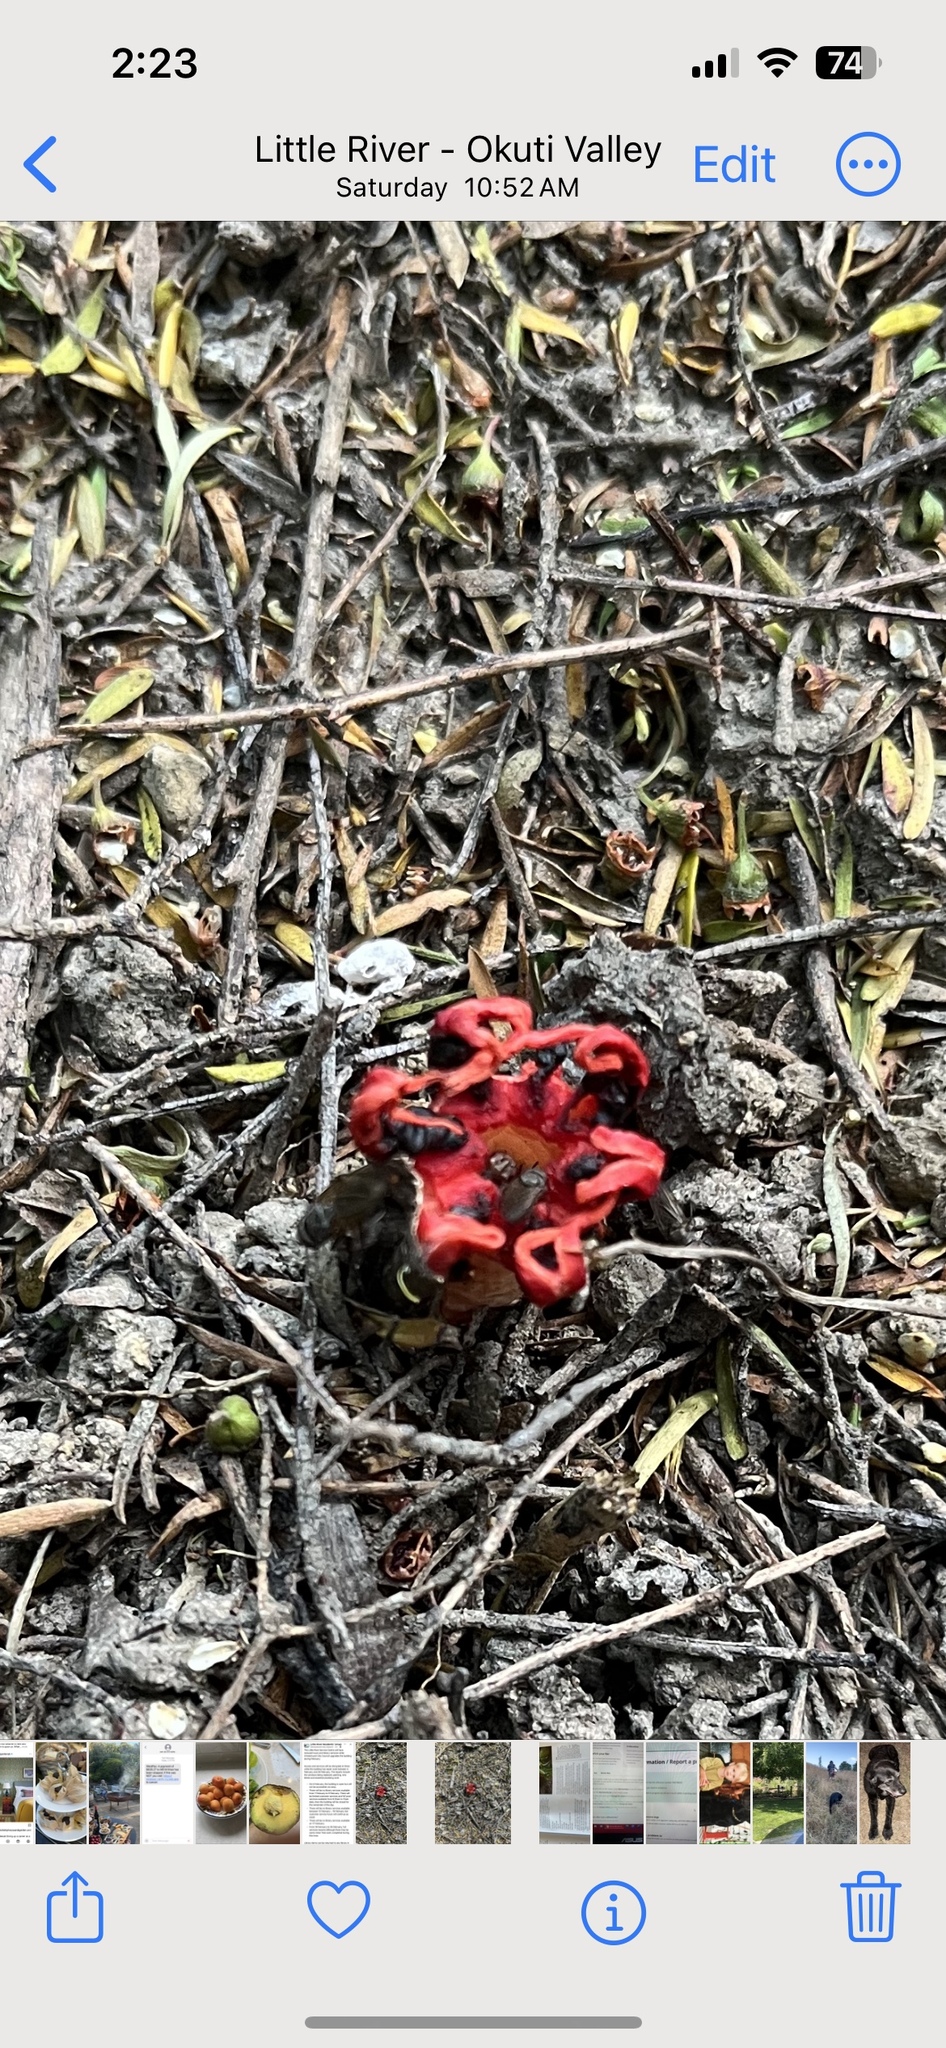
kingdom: Fungi
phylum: Basidiomycota
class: Agaricomycetes
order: Phallales
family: Phallaceae
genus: Clathrus
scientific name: Clathrus archeri
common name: Devil's fingers
